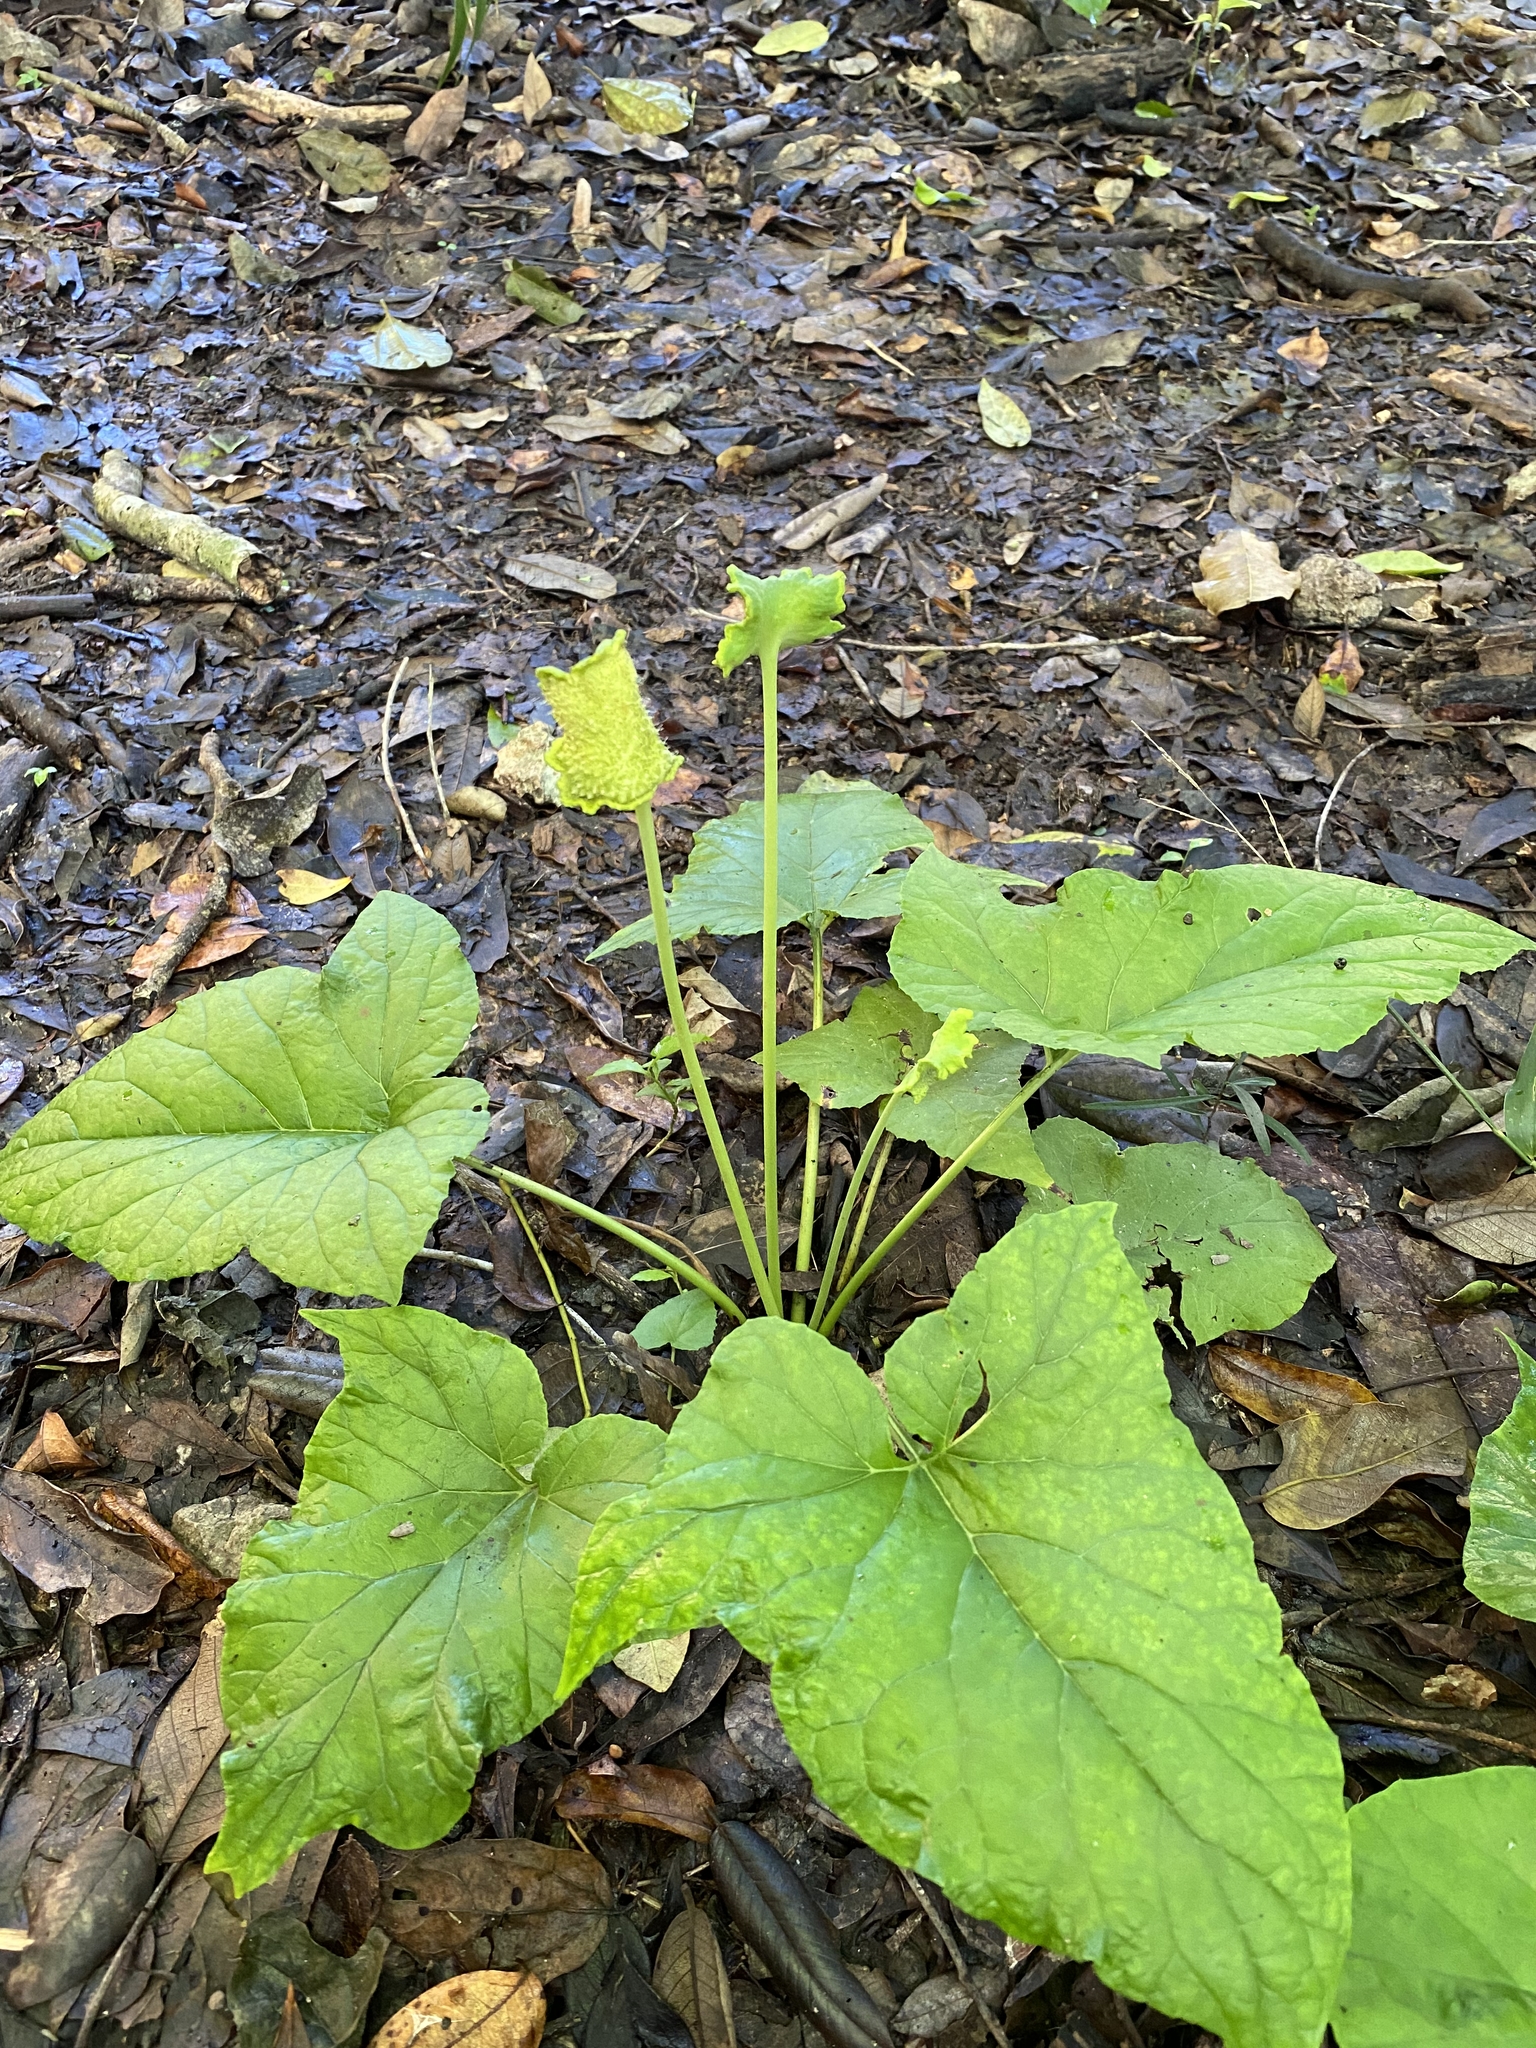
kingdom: Plantae
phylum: Tracheophyta
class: Magnoliopsida
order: Rosales
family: Moraceae
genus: Dorstenia
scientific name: Dorstenia contrajerva
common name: Tusilla
